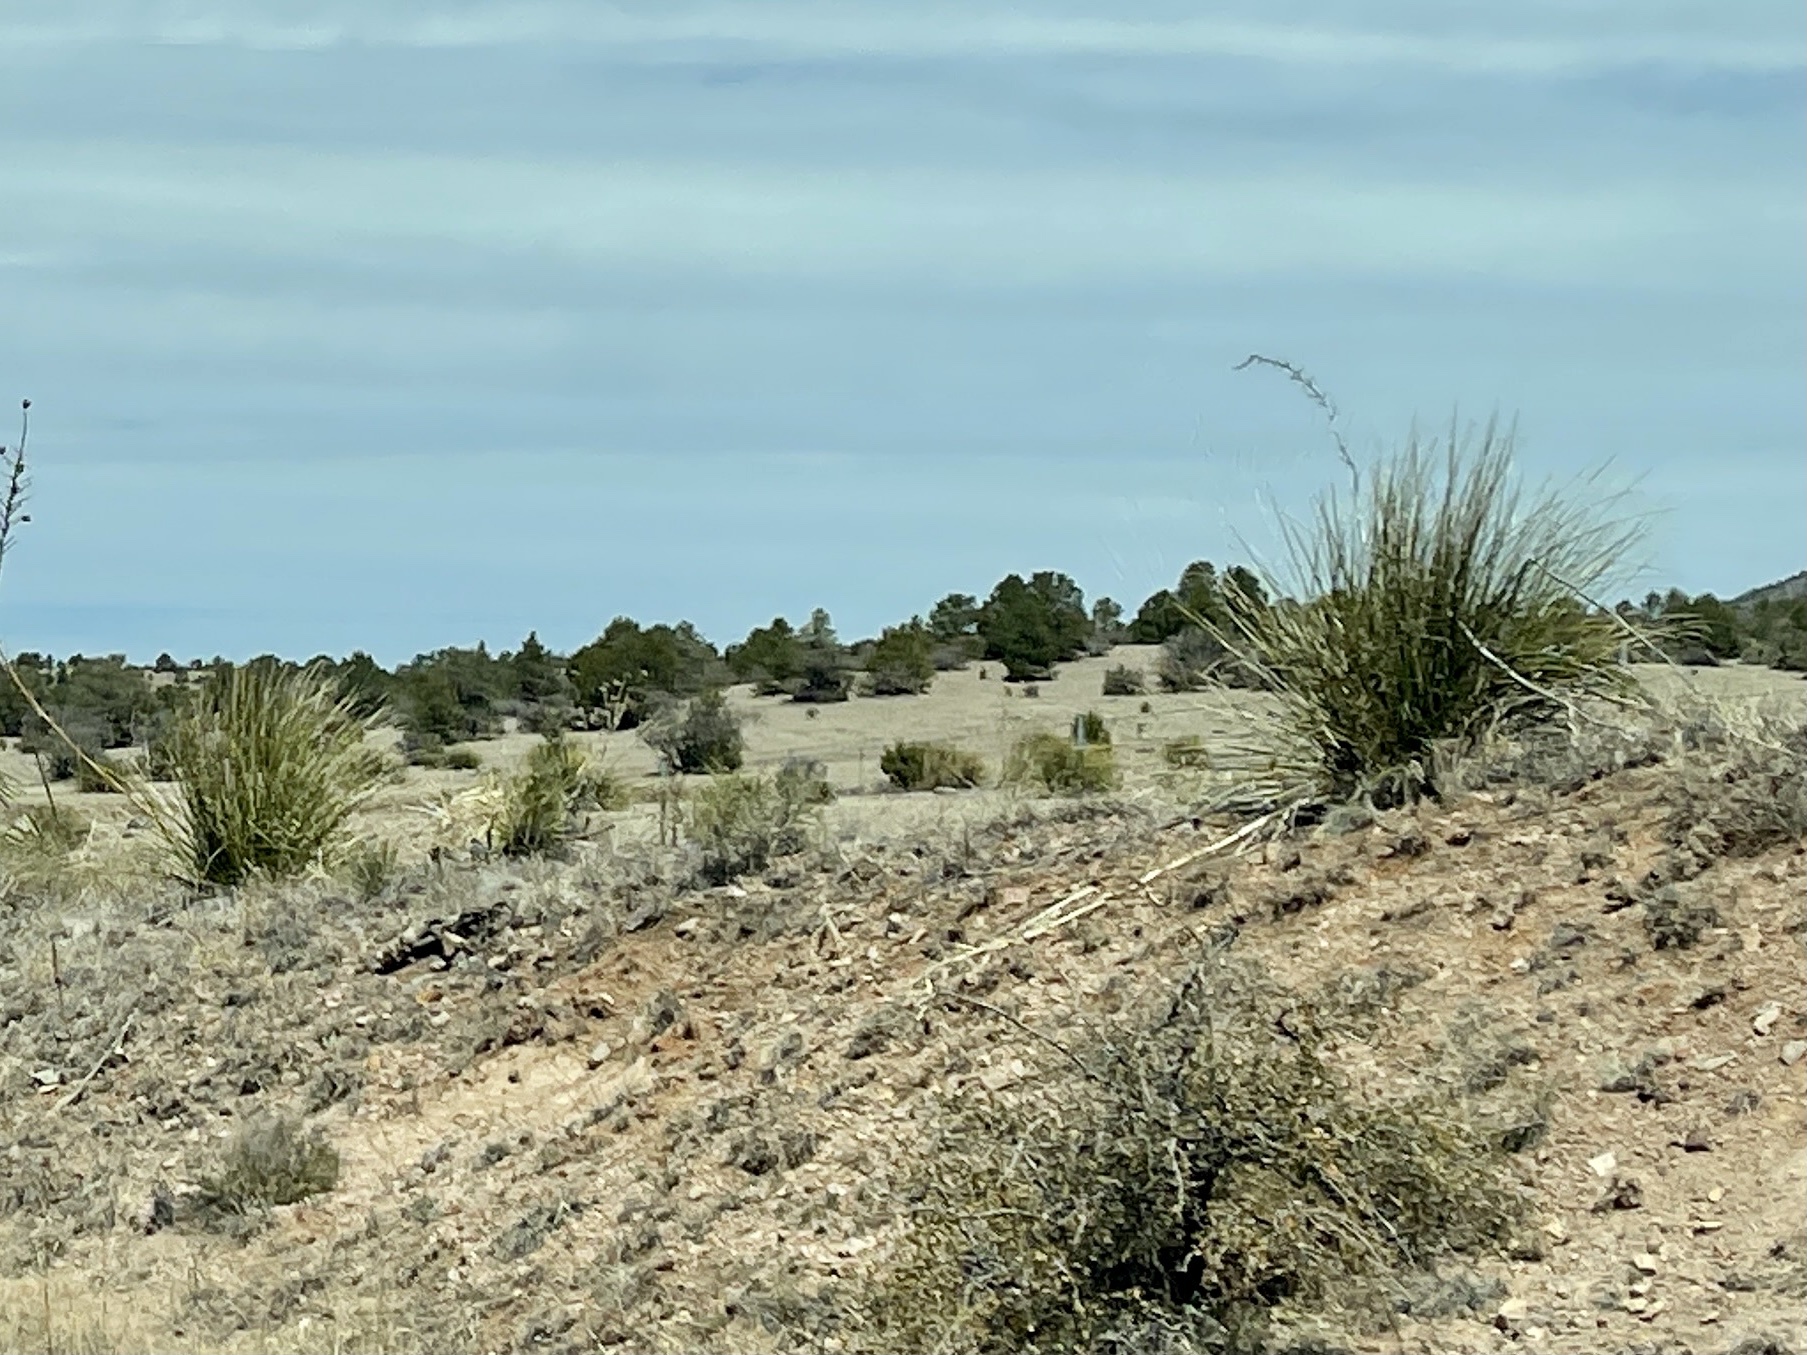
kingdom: Plantae
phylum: Tracheophyta
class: Liliopsida
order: Asparagales
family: Asparagaceae
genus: Nolina
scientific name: Nolina microcarpa
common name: Bear-grass
